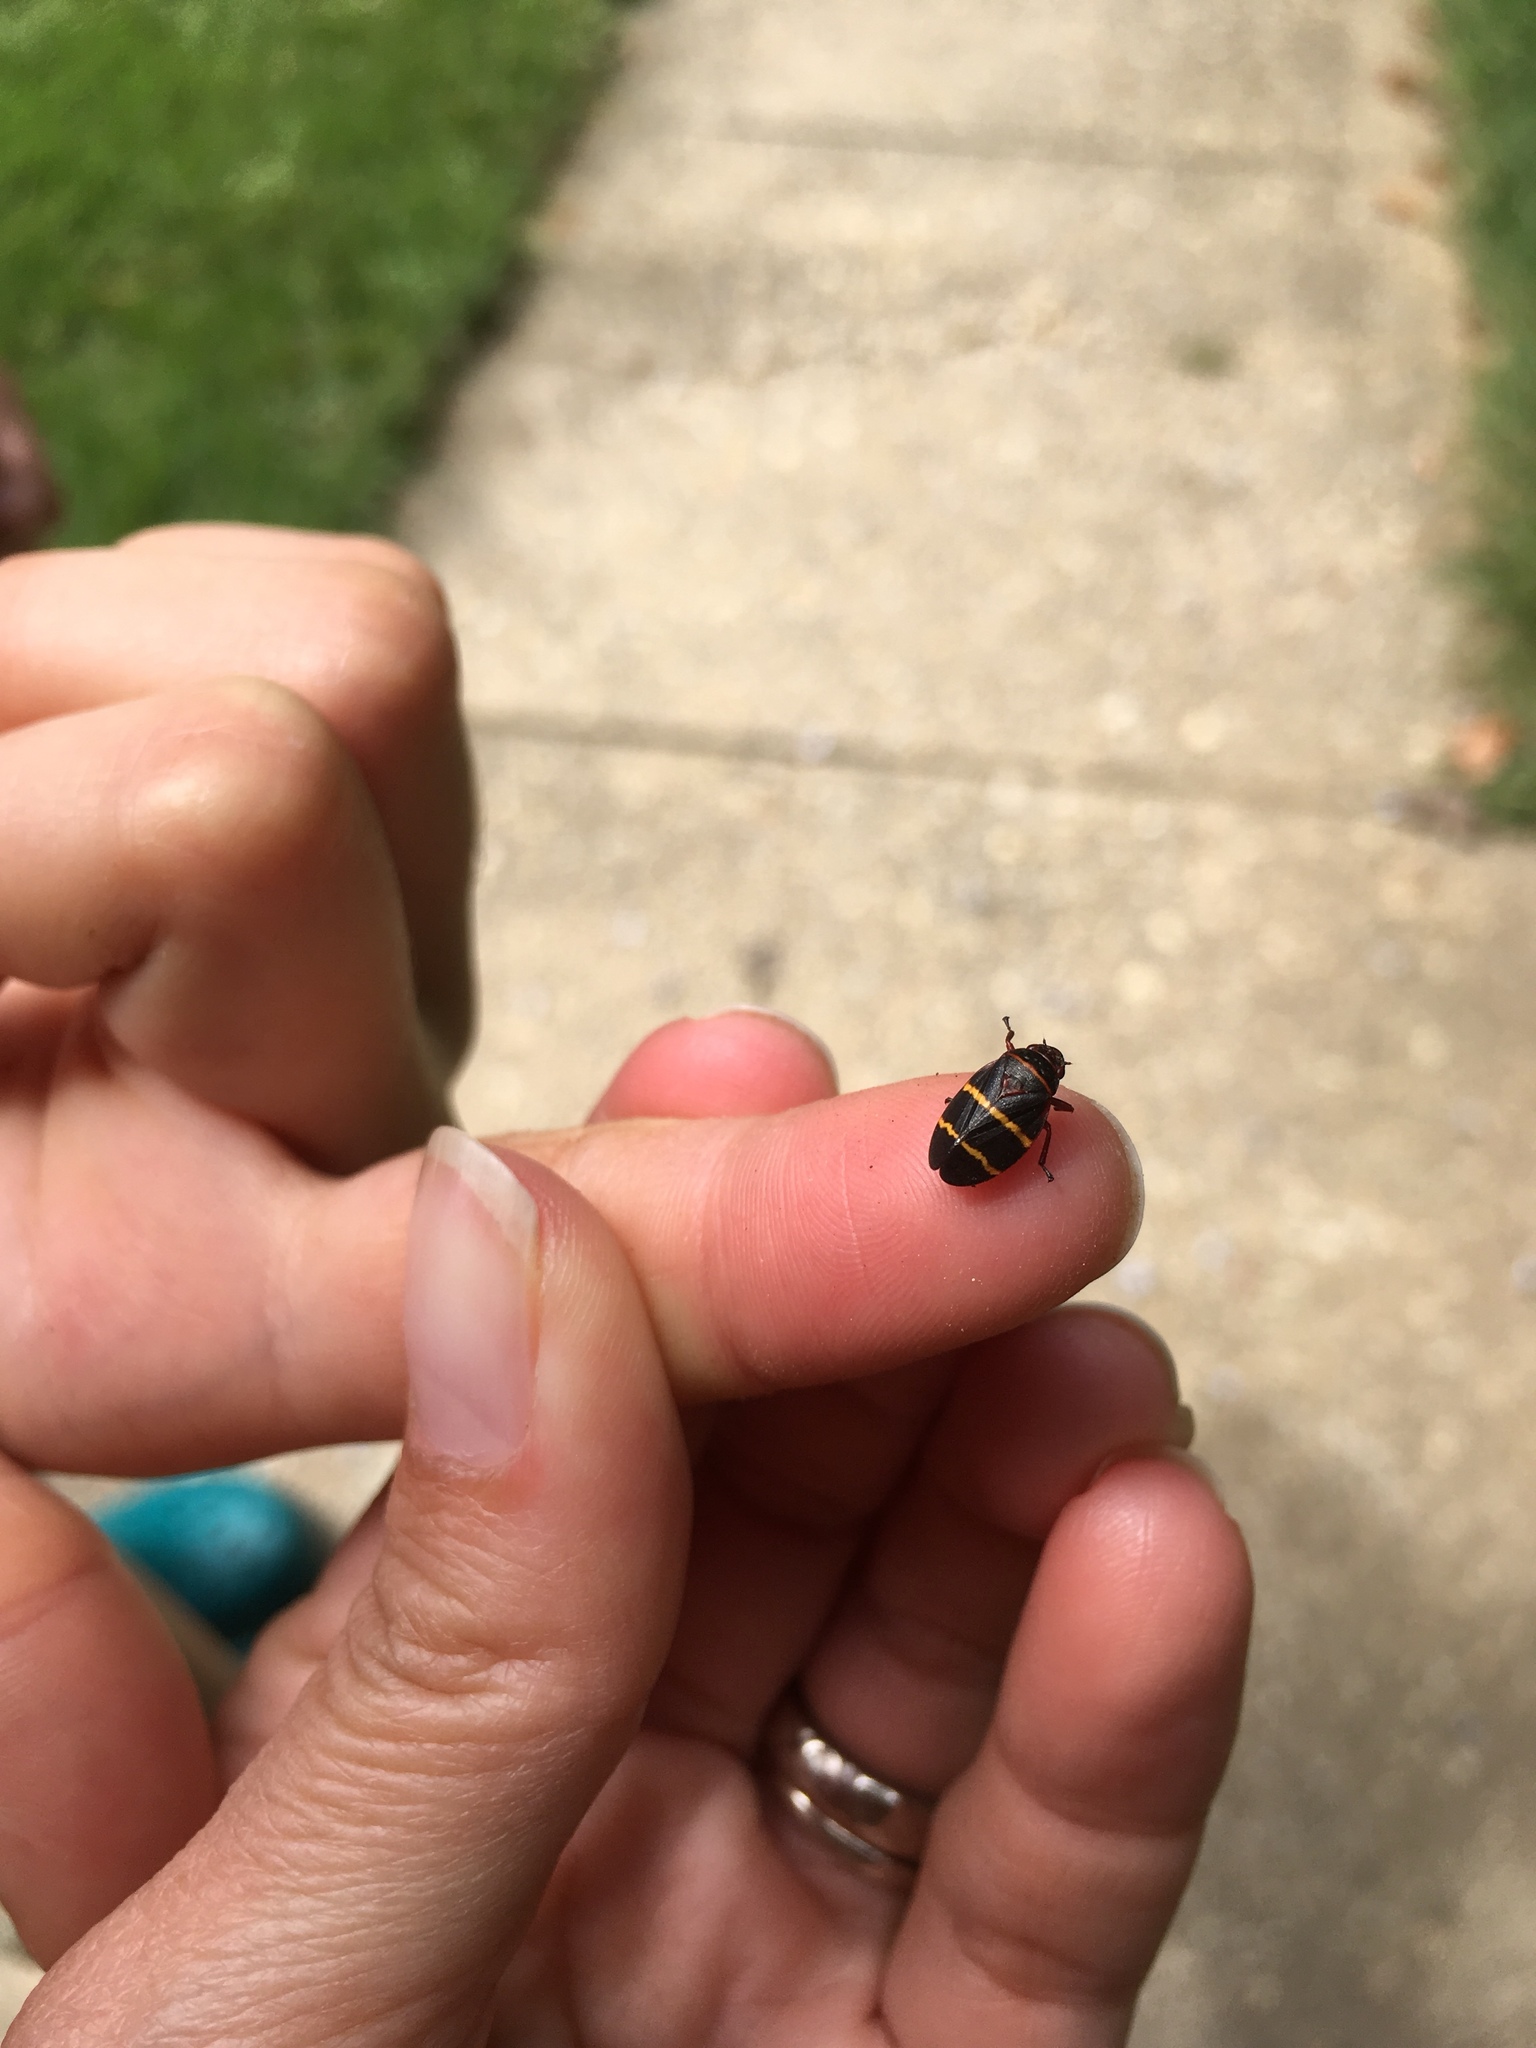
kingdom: Animalia
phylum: Arthropoda
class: Insecta
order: Hemiptera
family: Cercopidae
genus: Prosapia
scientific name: Prosapia bicincta
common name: Twolined spittlebug
